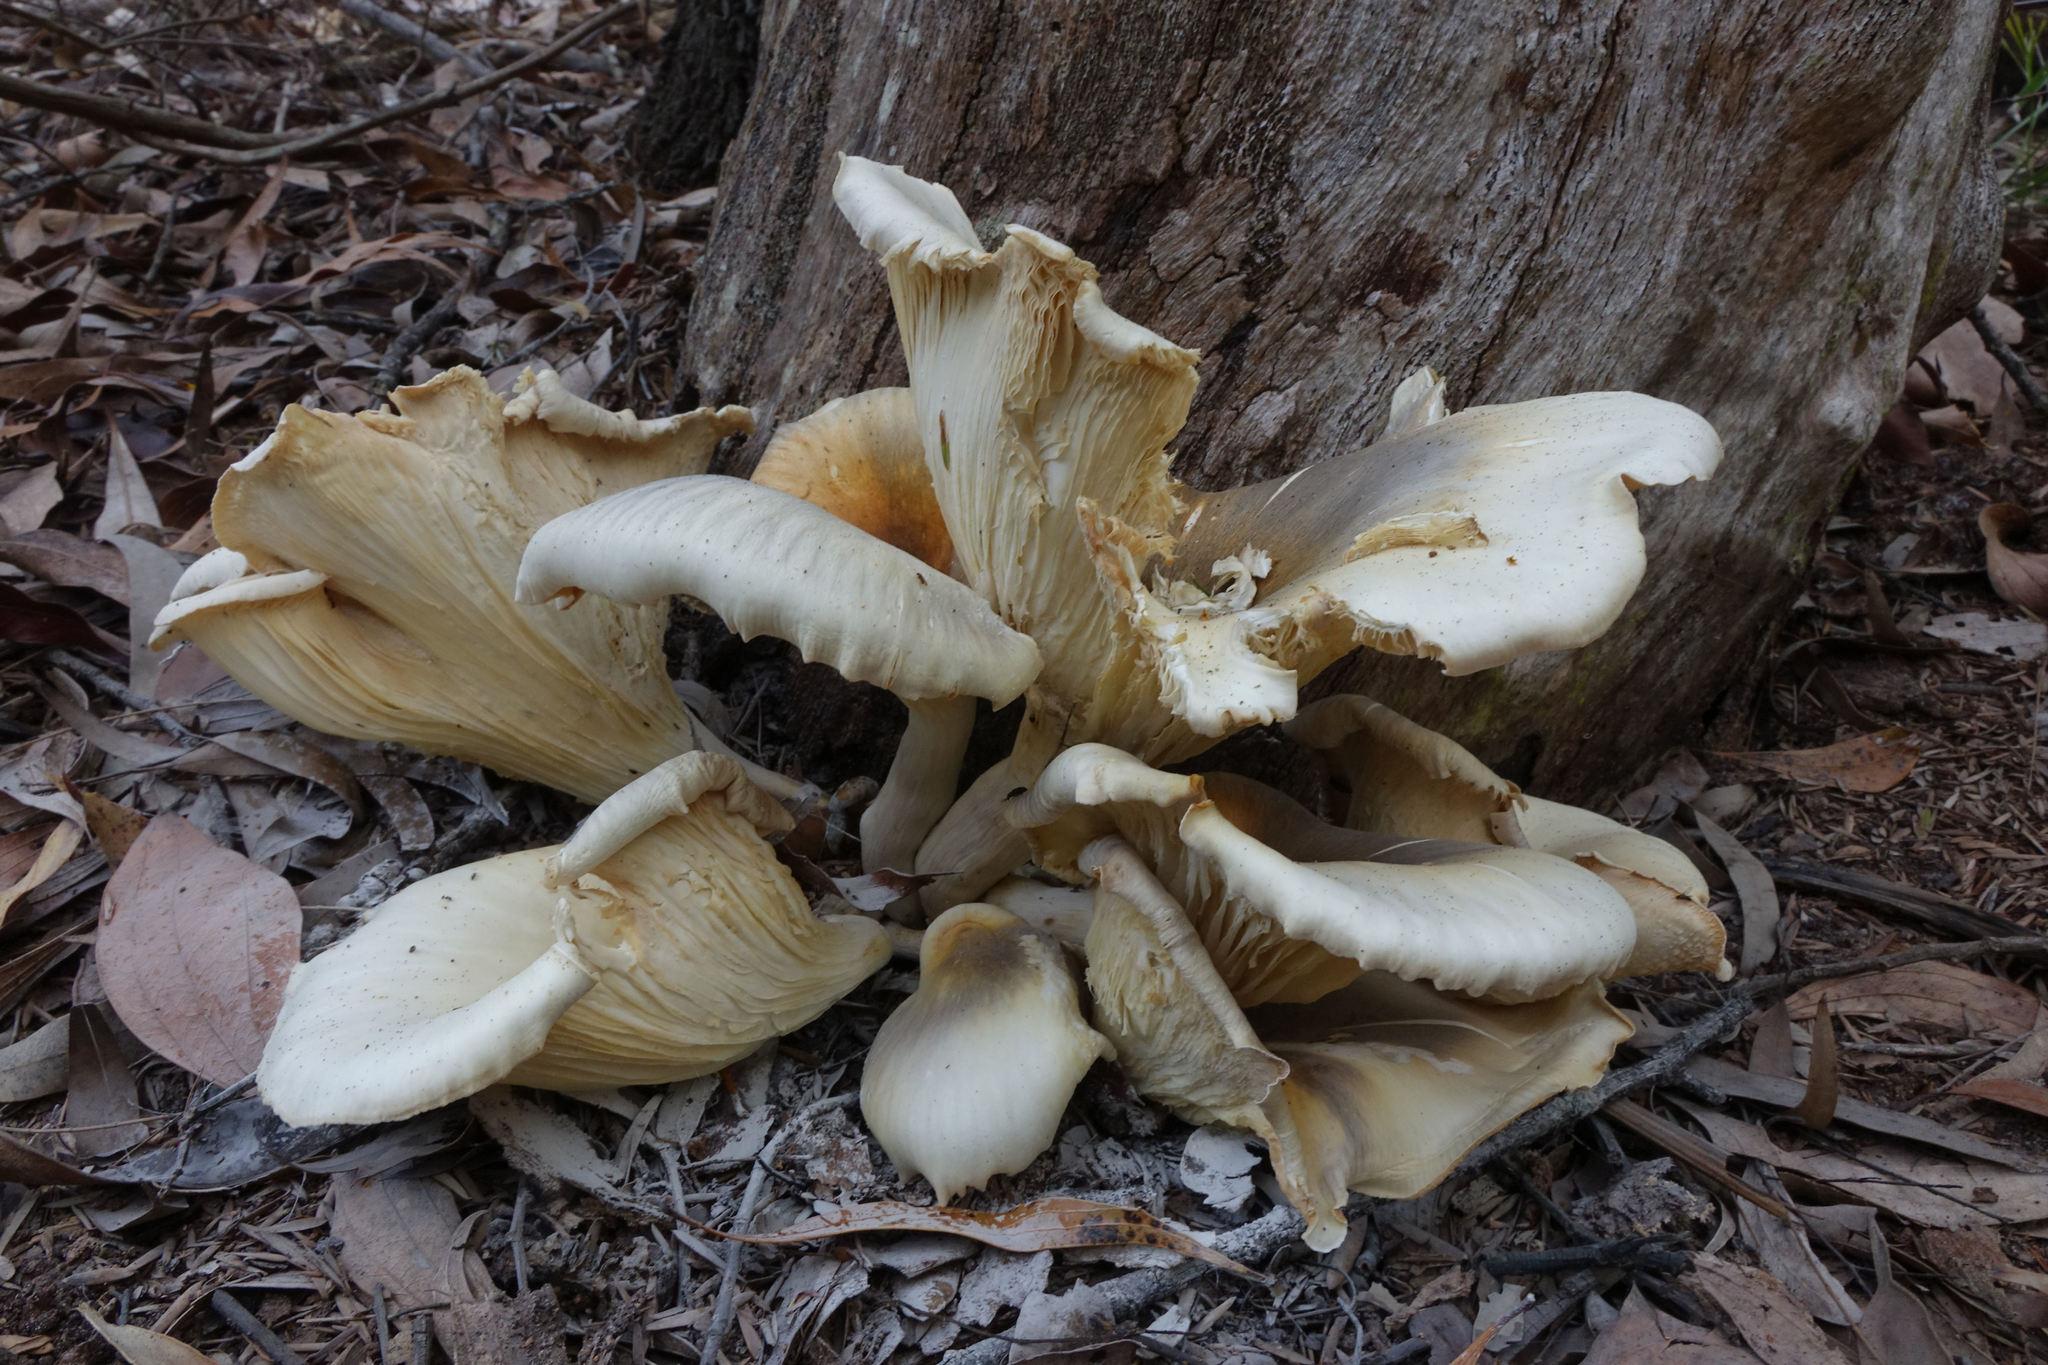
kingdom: Fungi
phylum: Basidiomycota
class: Agaricomycetes
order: Agaricales
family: Omphalotaceae
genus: Omphalotus
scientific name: Omphalotus nidiformis
